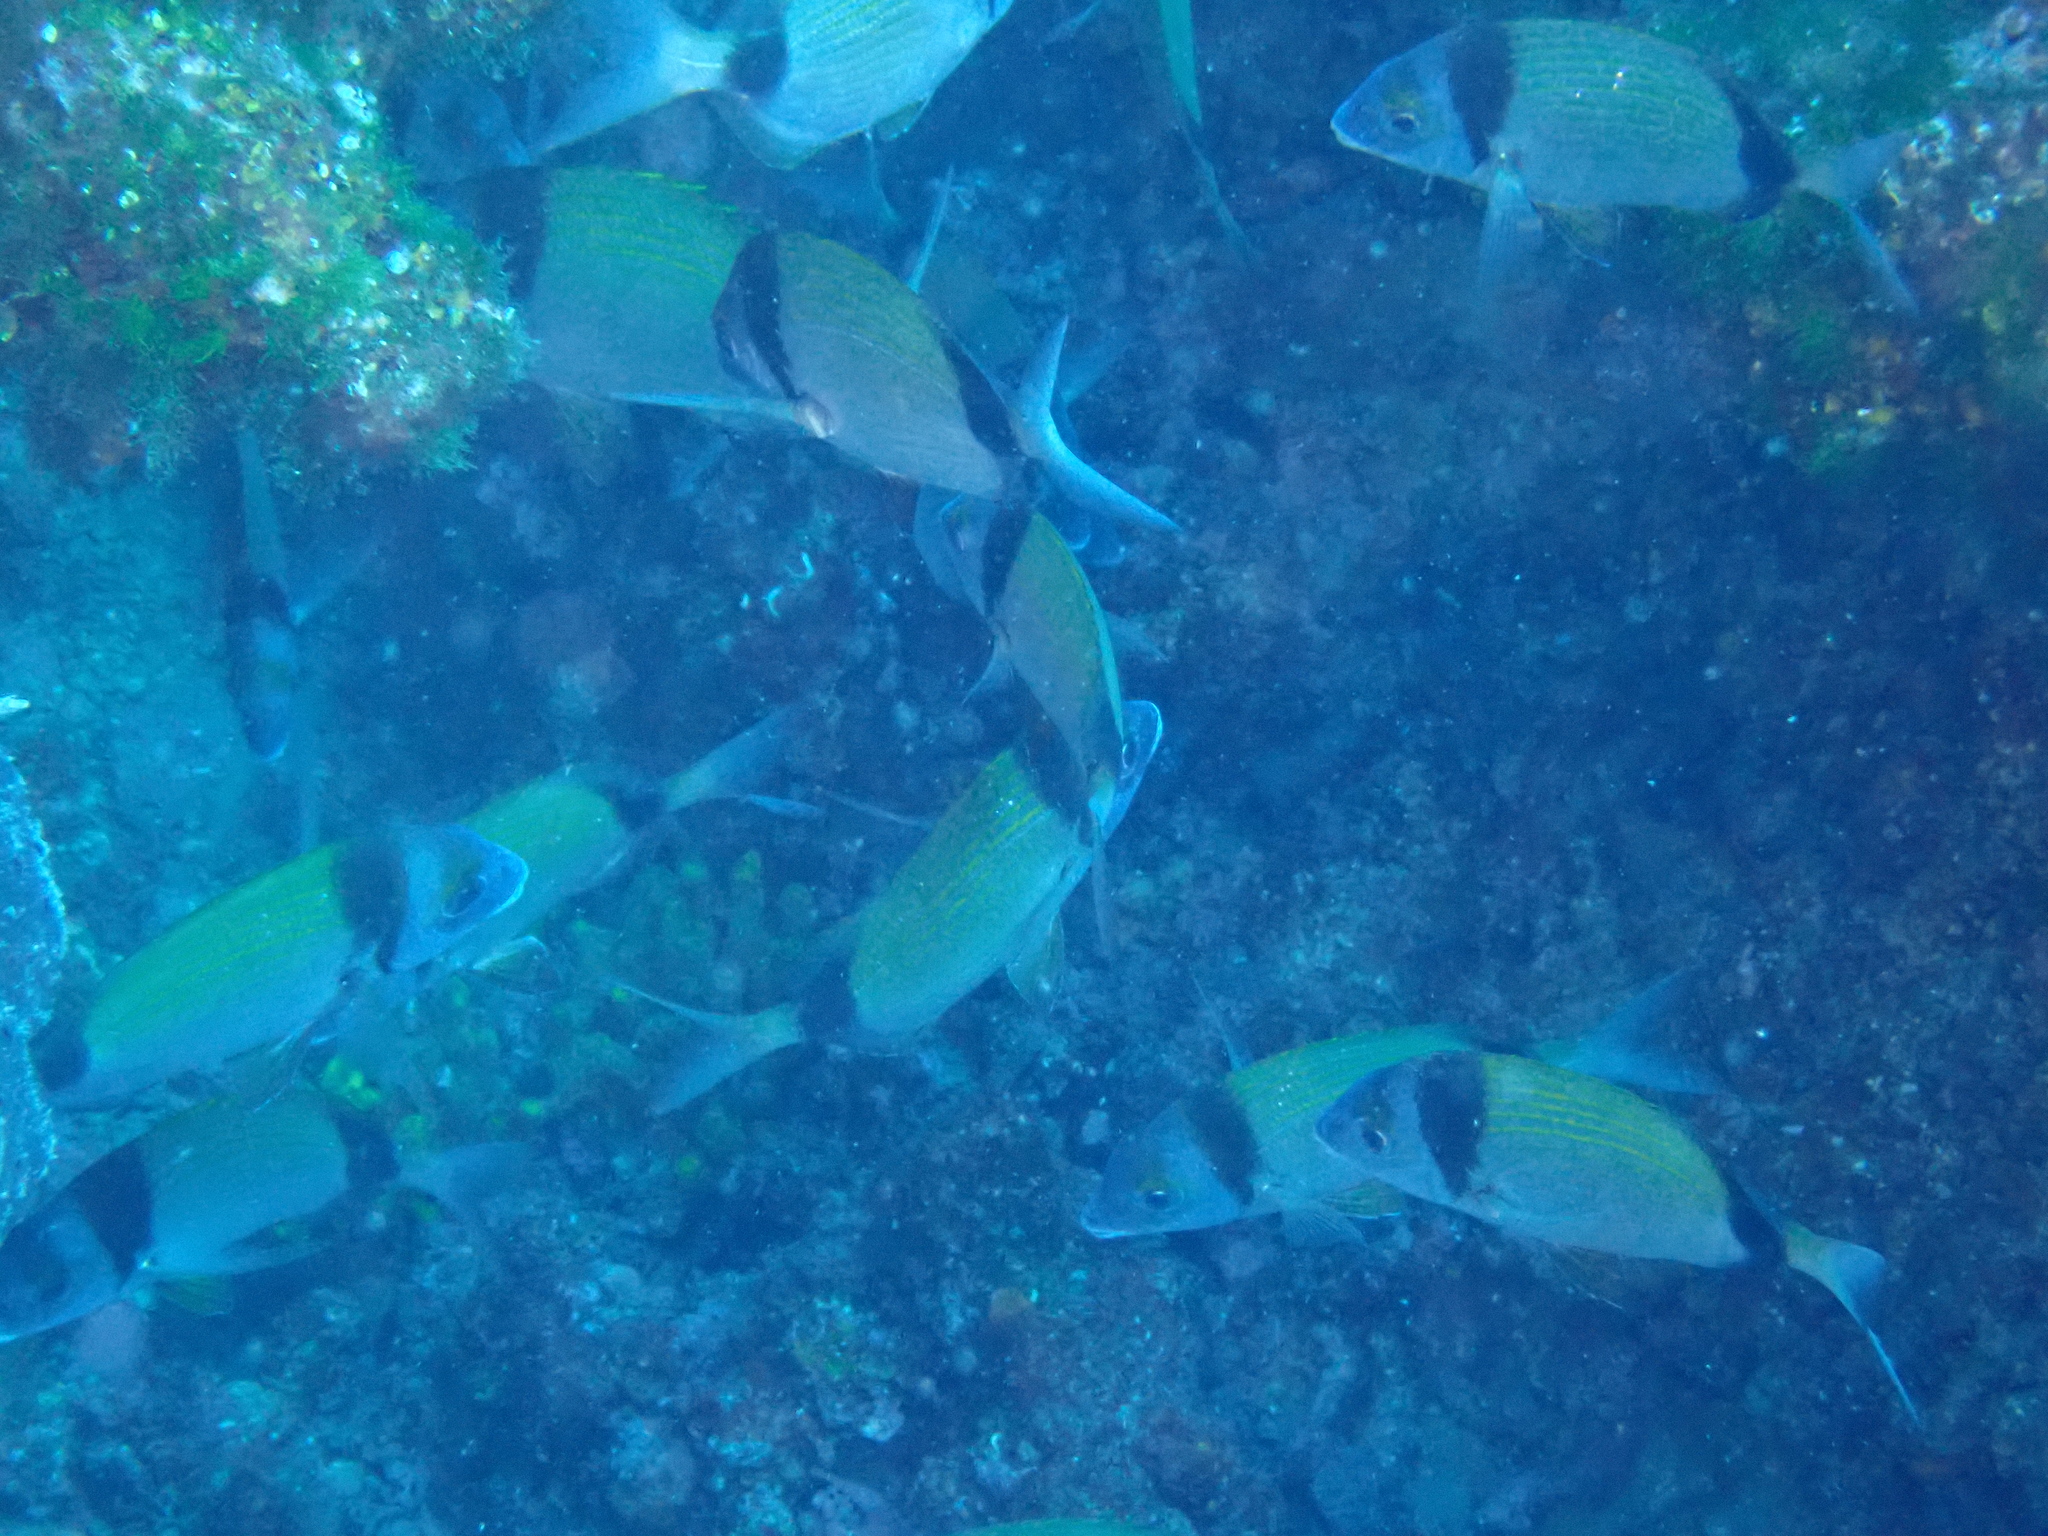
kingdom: Animalia
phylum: Chordata
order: Perciformes
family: Sparidae
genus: Diplodus
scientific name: Diplodus vulgaris
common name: Common two-banded seabream
